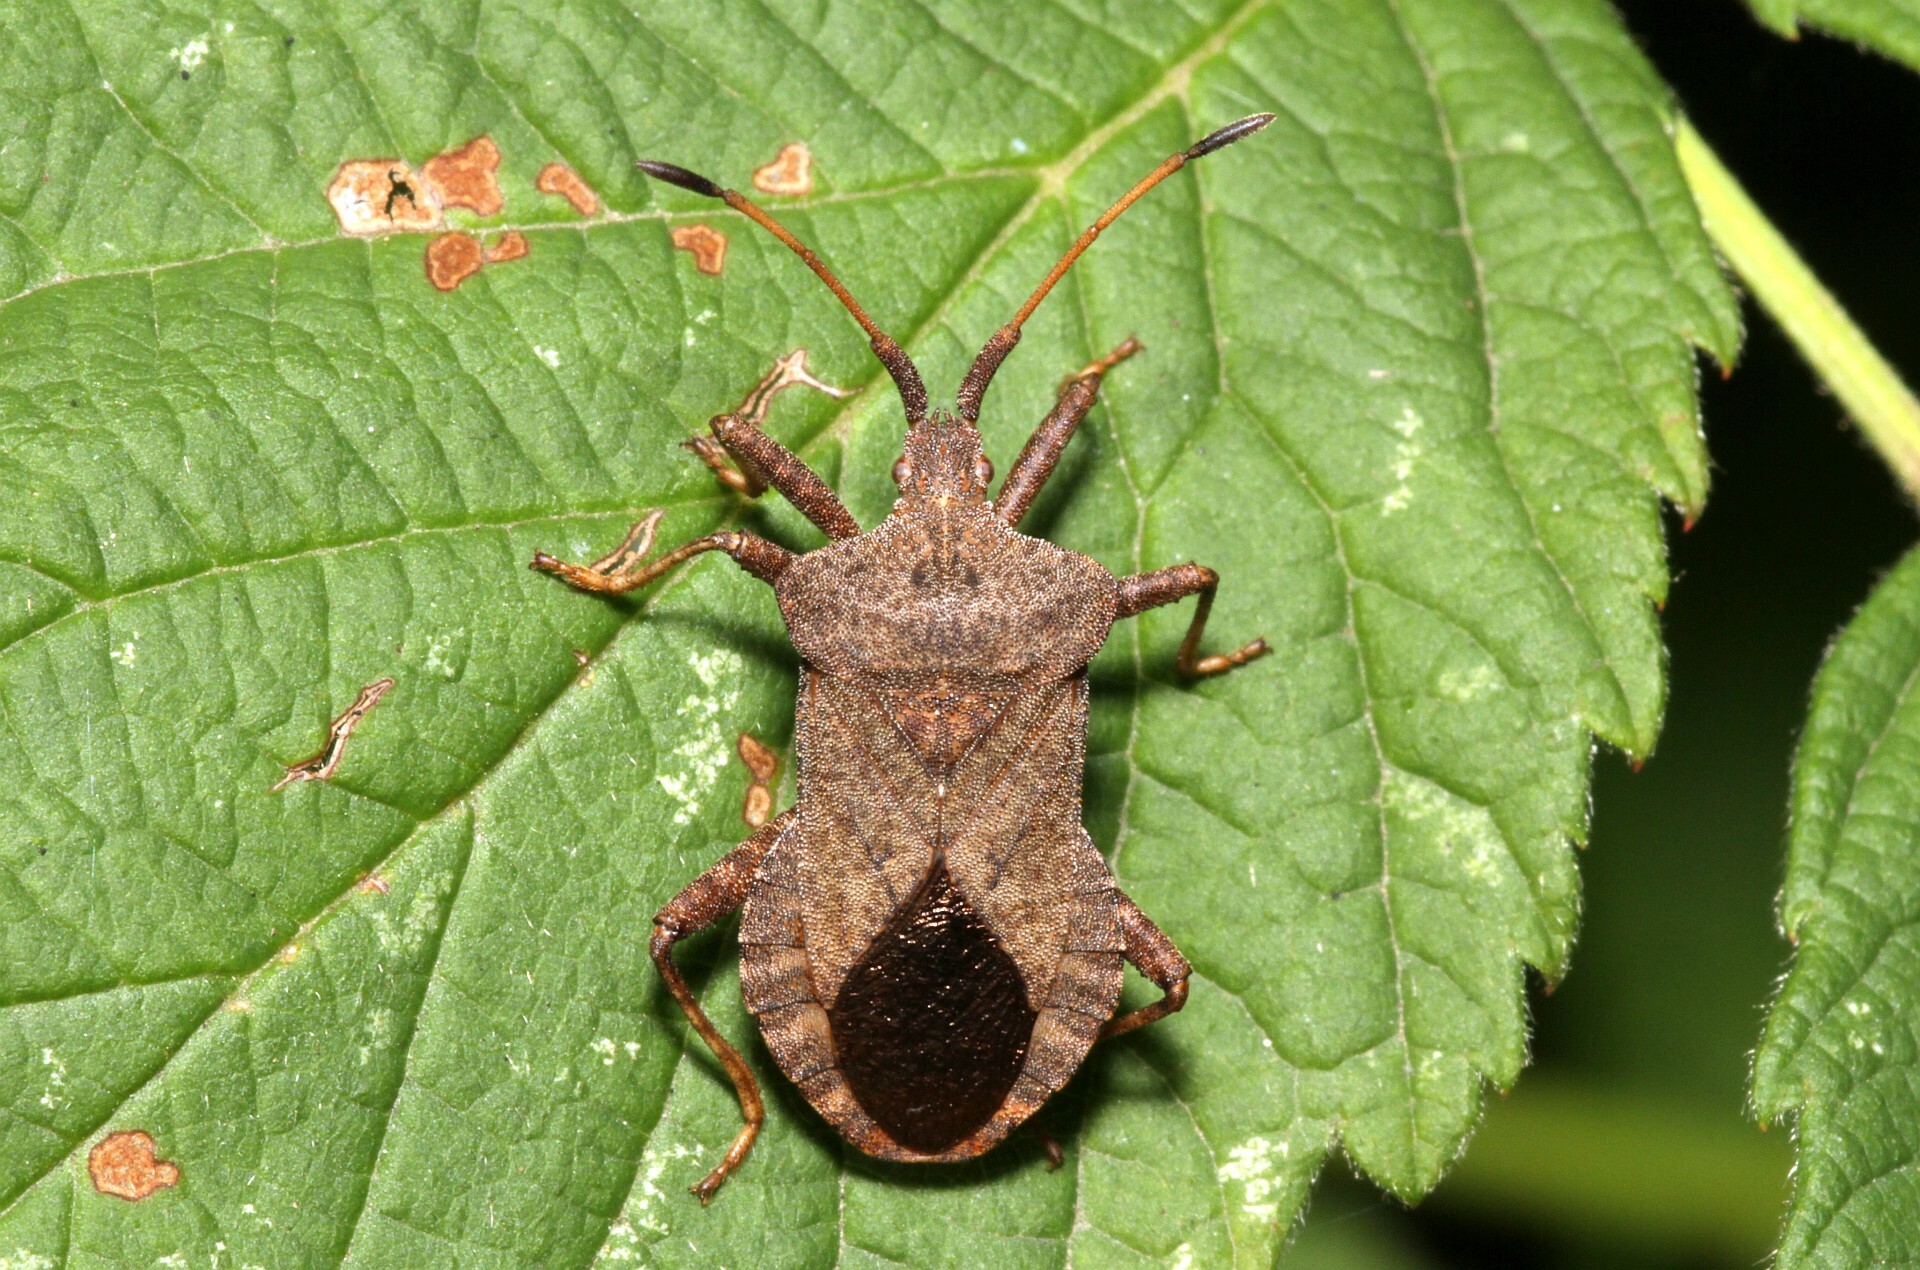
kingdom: Animalia
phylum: Arthropoda
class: Insecta
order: Hemiptera
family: Coreidae
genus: Coreus
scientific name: Coreus marginatus
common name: Dock bug
